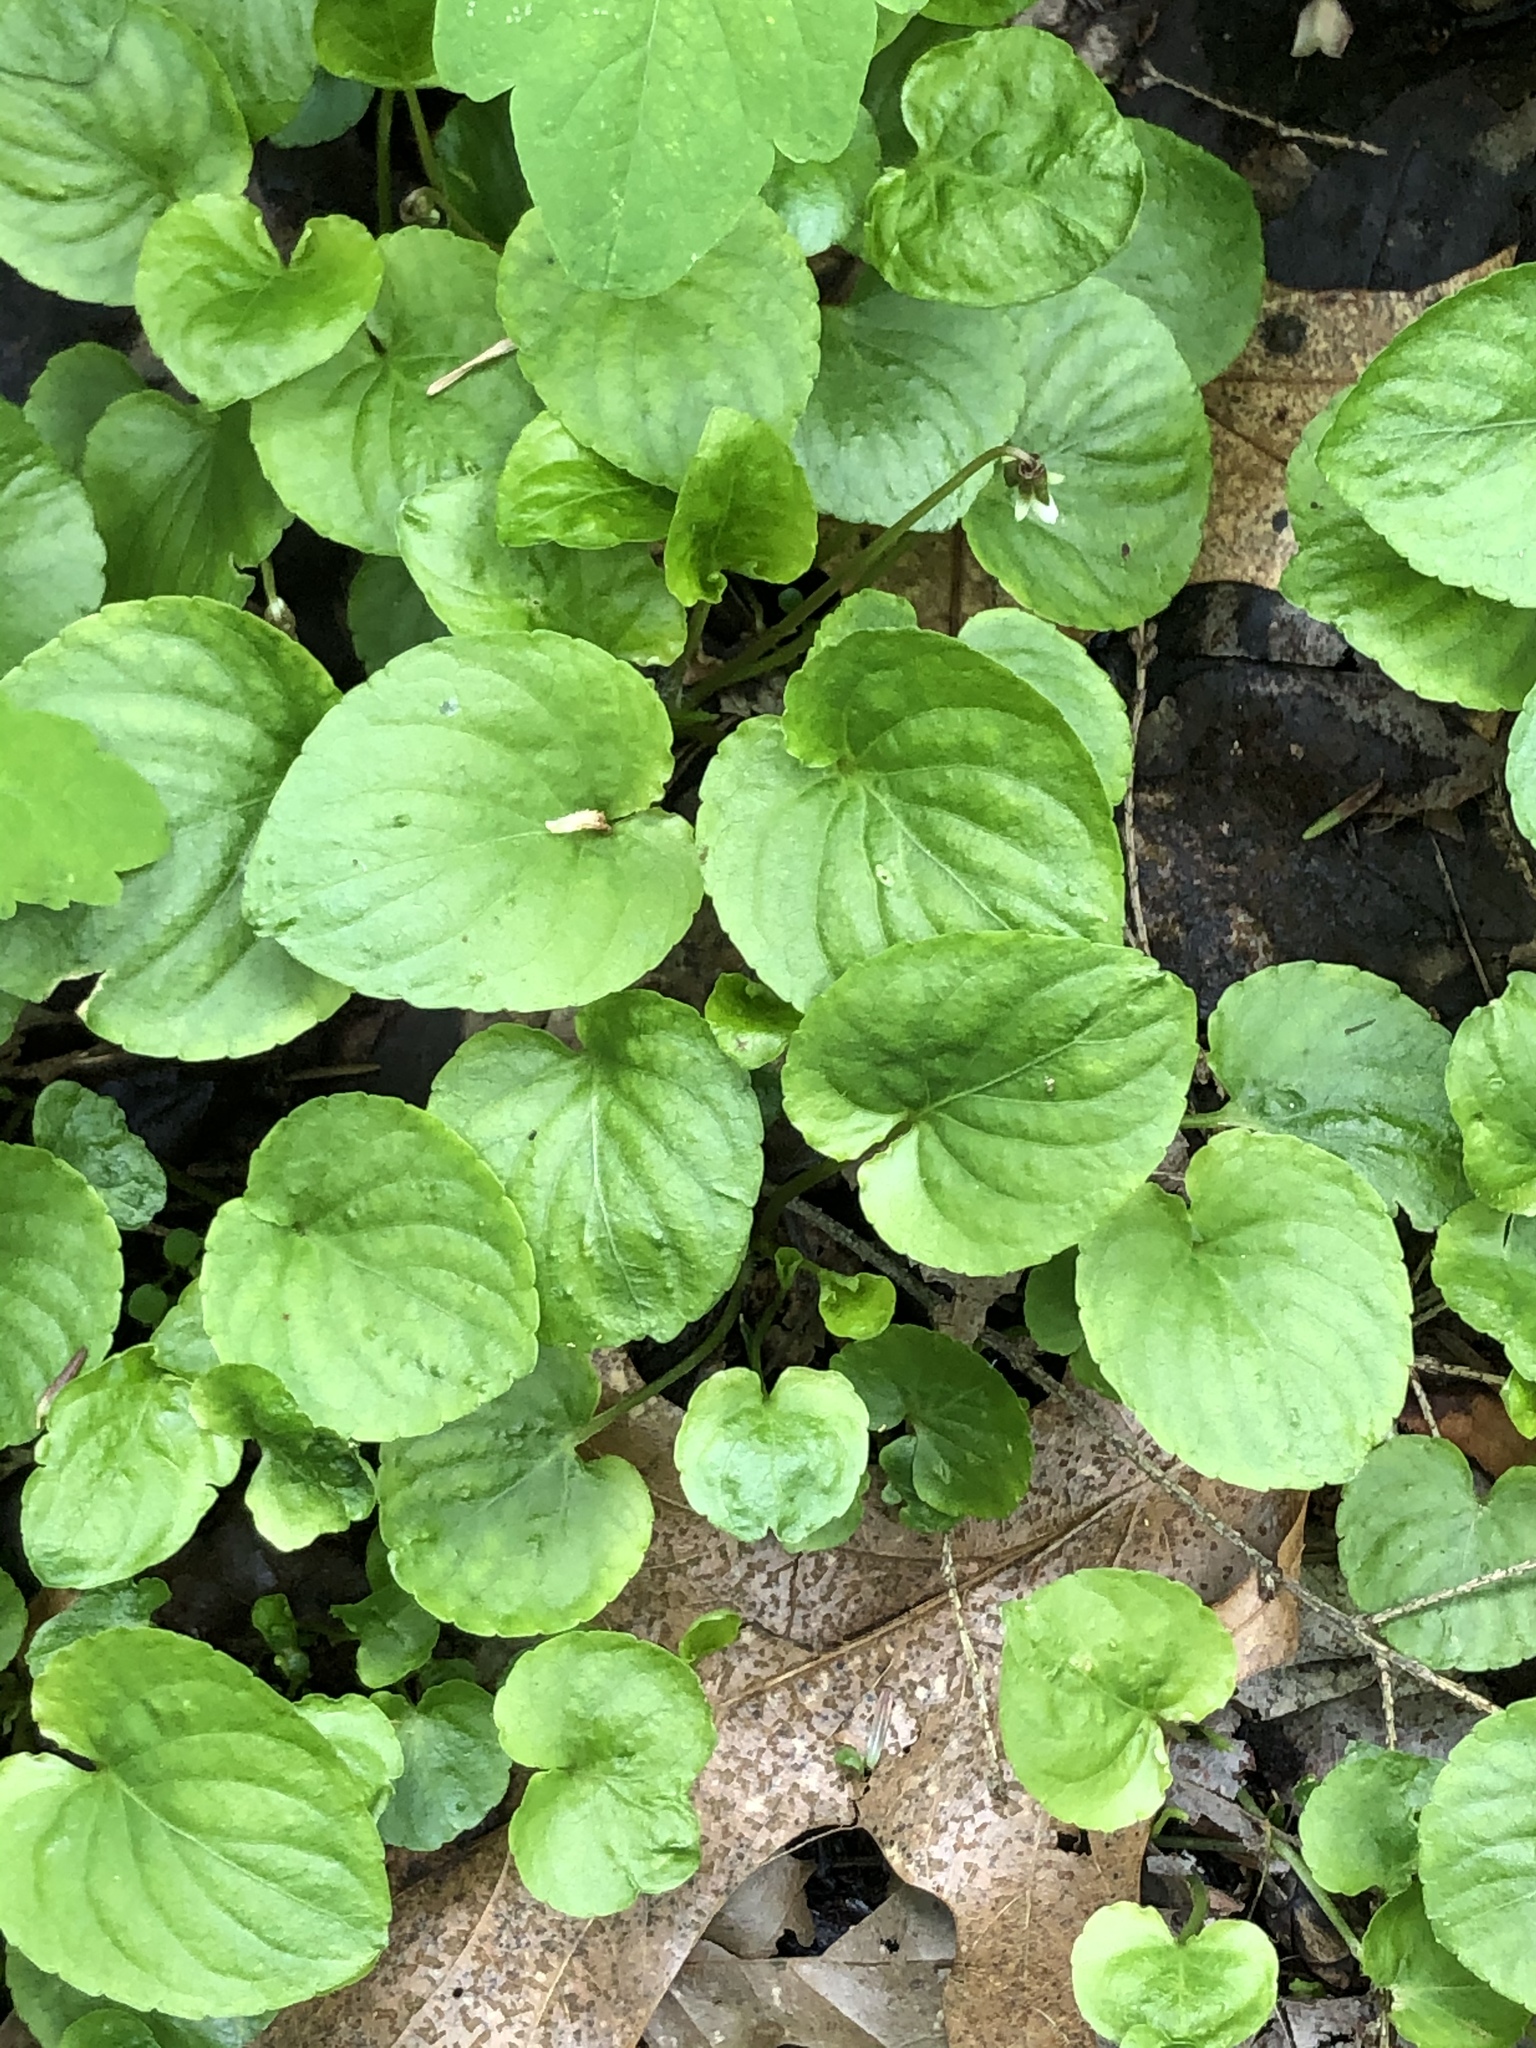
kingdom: Plantae
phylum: Tracheophyta
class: Magnoliopsida
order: Malpighiales
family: Violaceae
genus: Viola
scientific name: Viola blanda
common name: Sweet white violet
